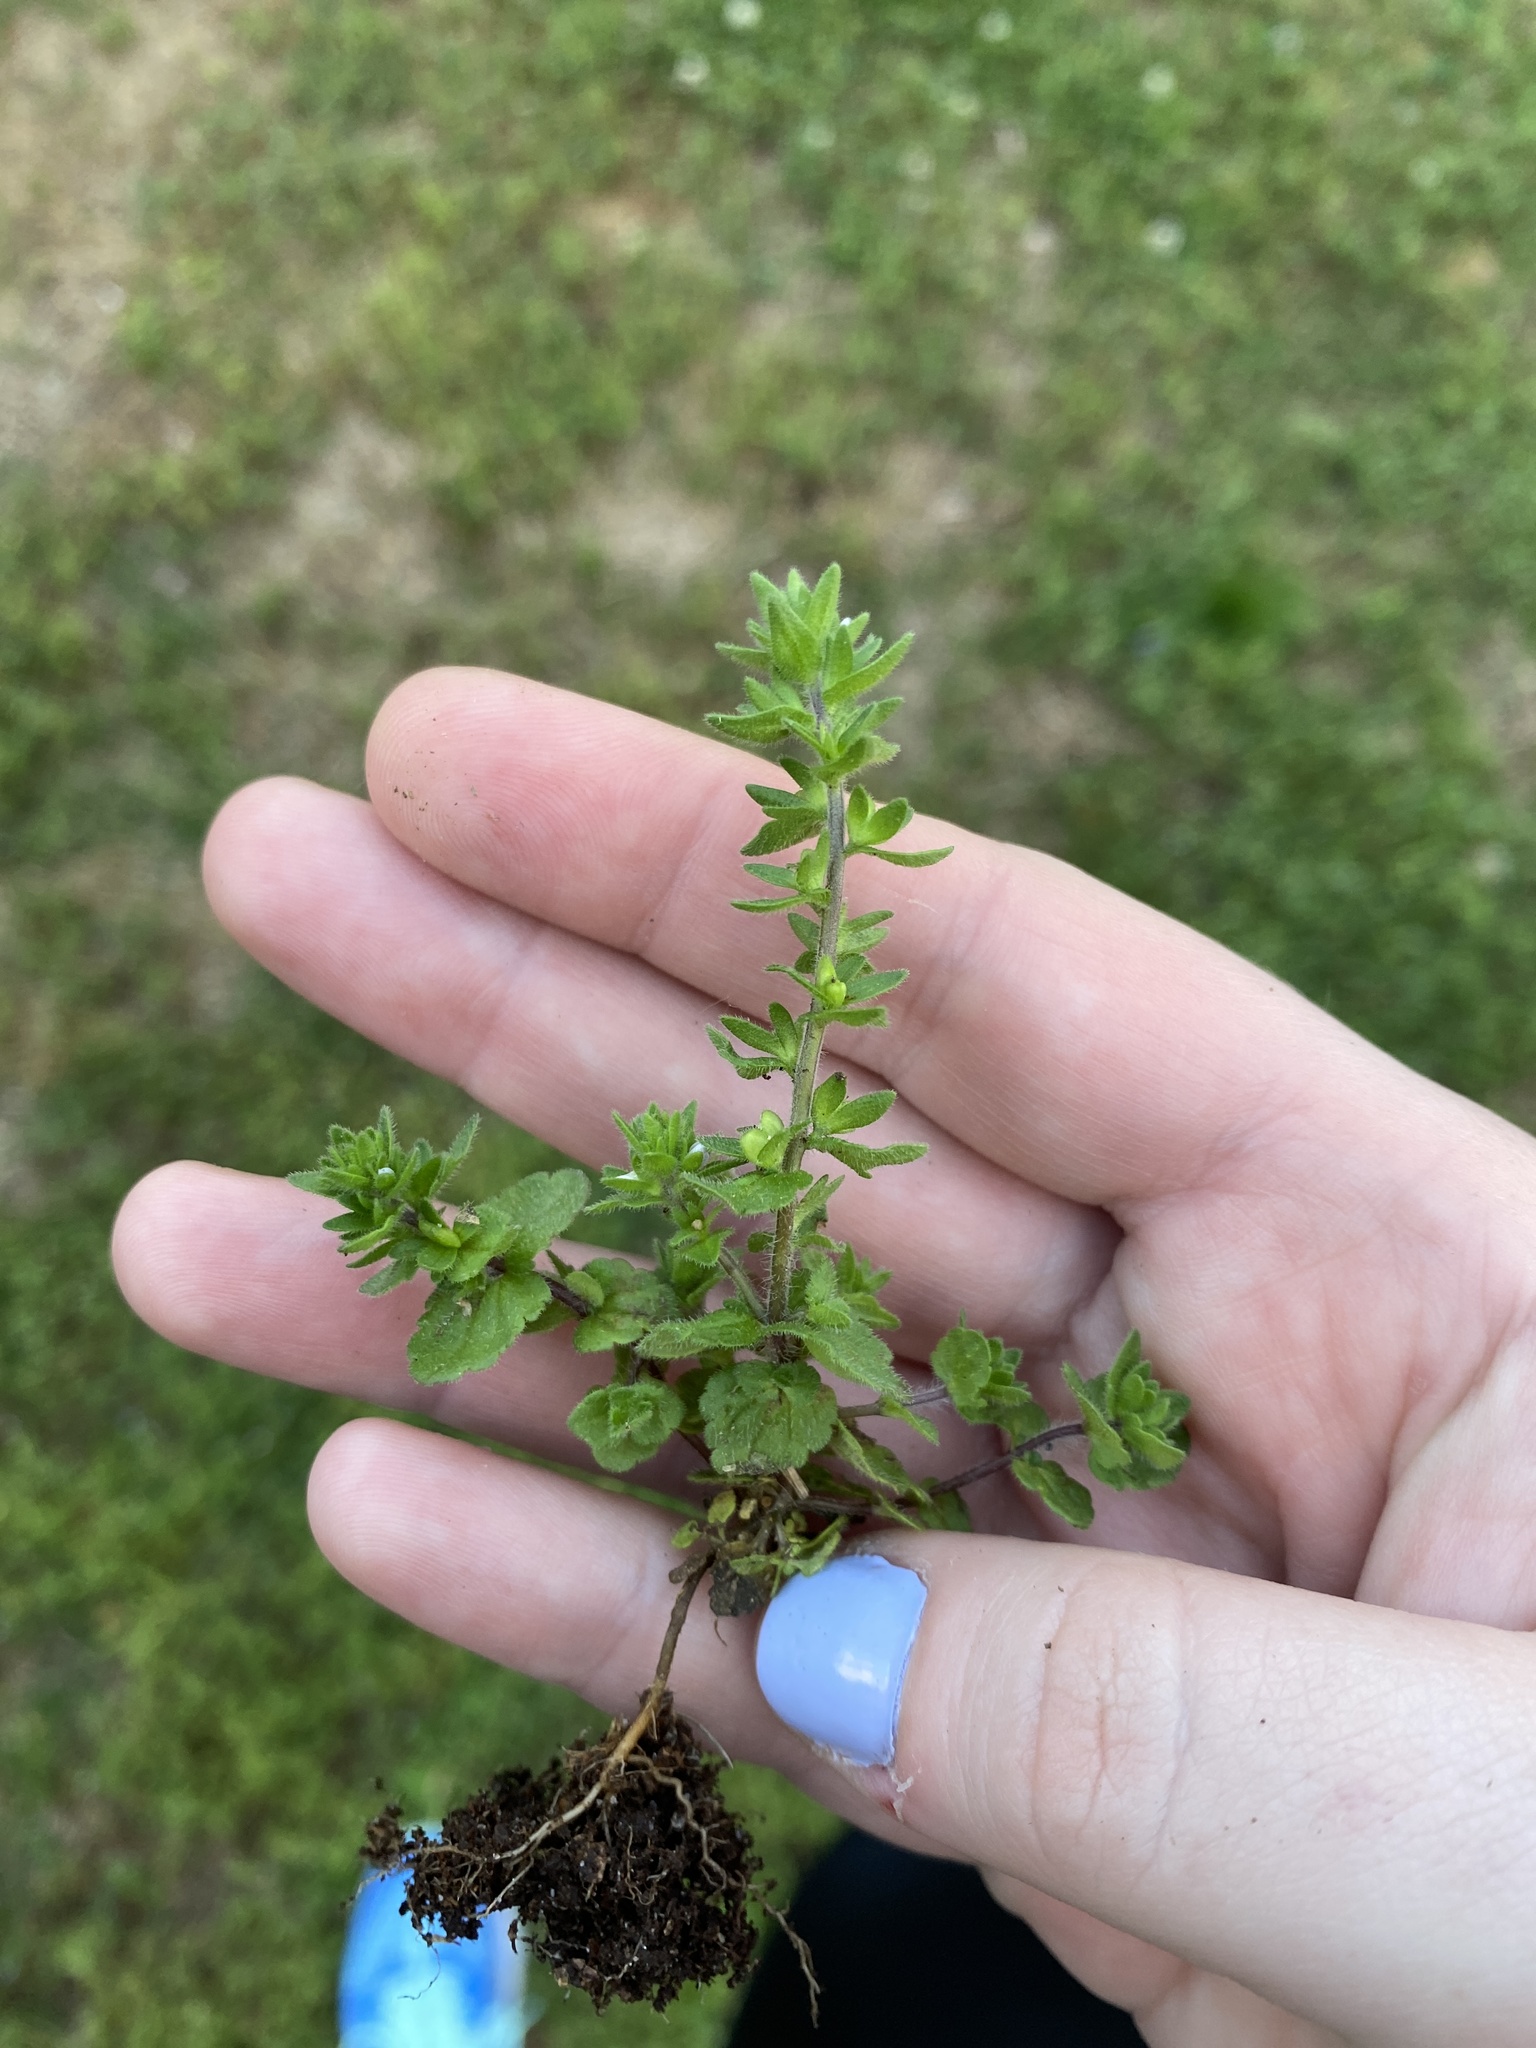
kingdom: Plantae
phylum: Tracheophyta
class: Magnoliopsida
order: Lamiales
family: Plantaginaceae
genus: Veronica
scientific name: Veronica arvensis
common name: Corn speedwell
